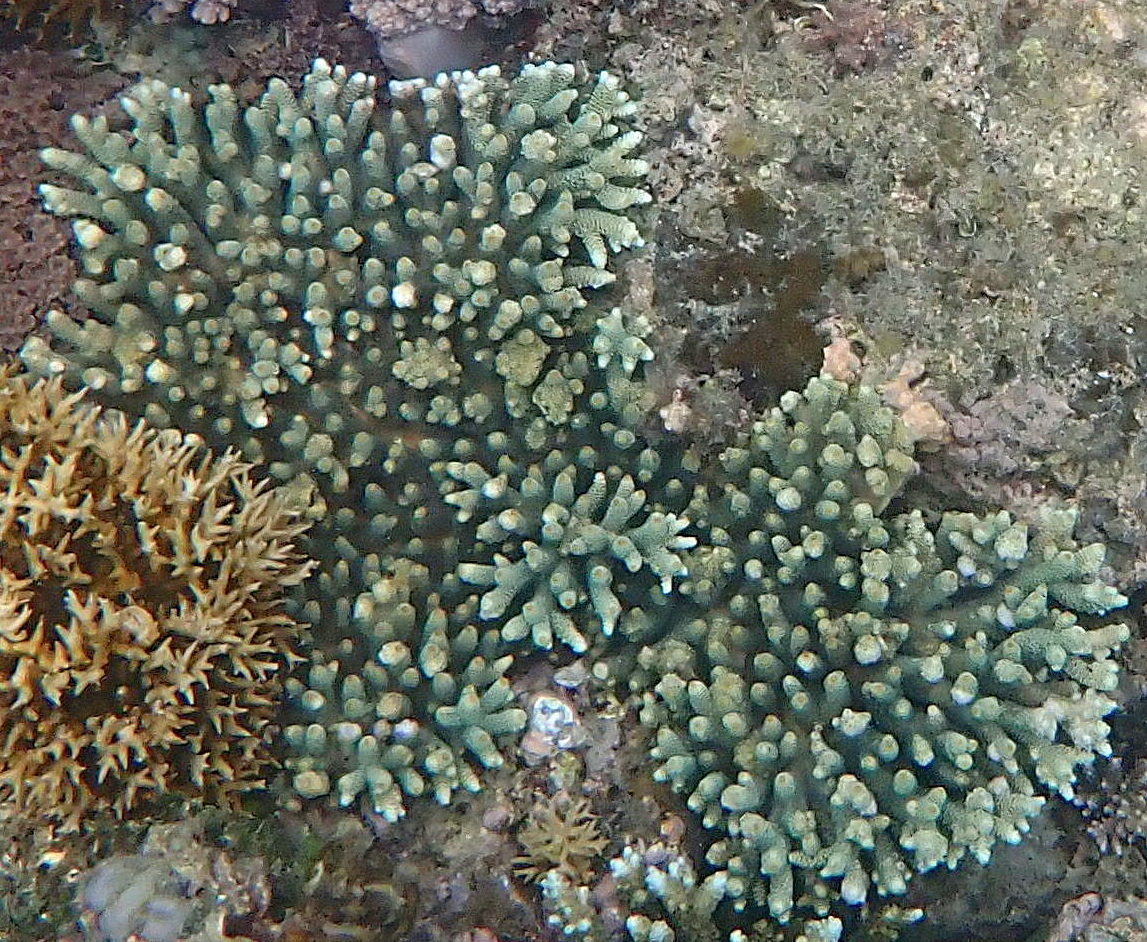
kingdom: Animalia
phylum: Cnidaria
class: Anthozoa
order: Scleractinia
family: Acroporidae
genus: Acropora
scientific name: Acropora millepora
